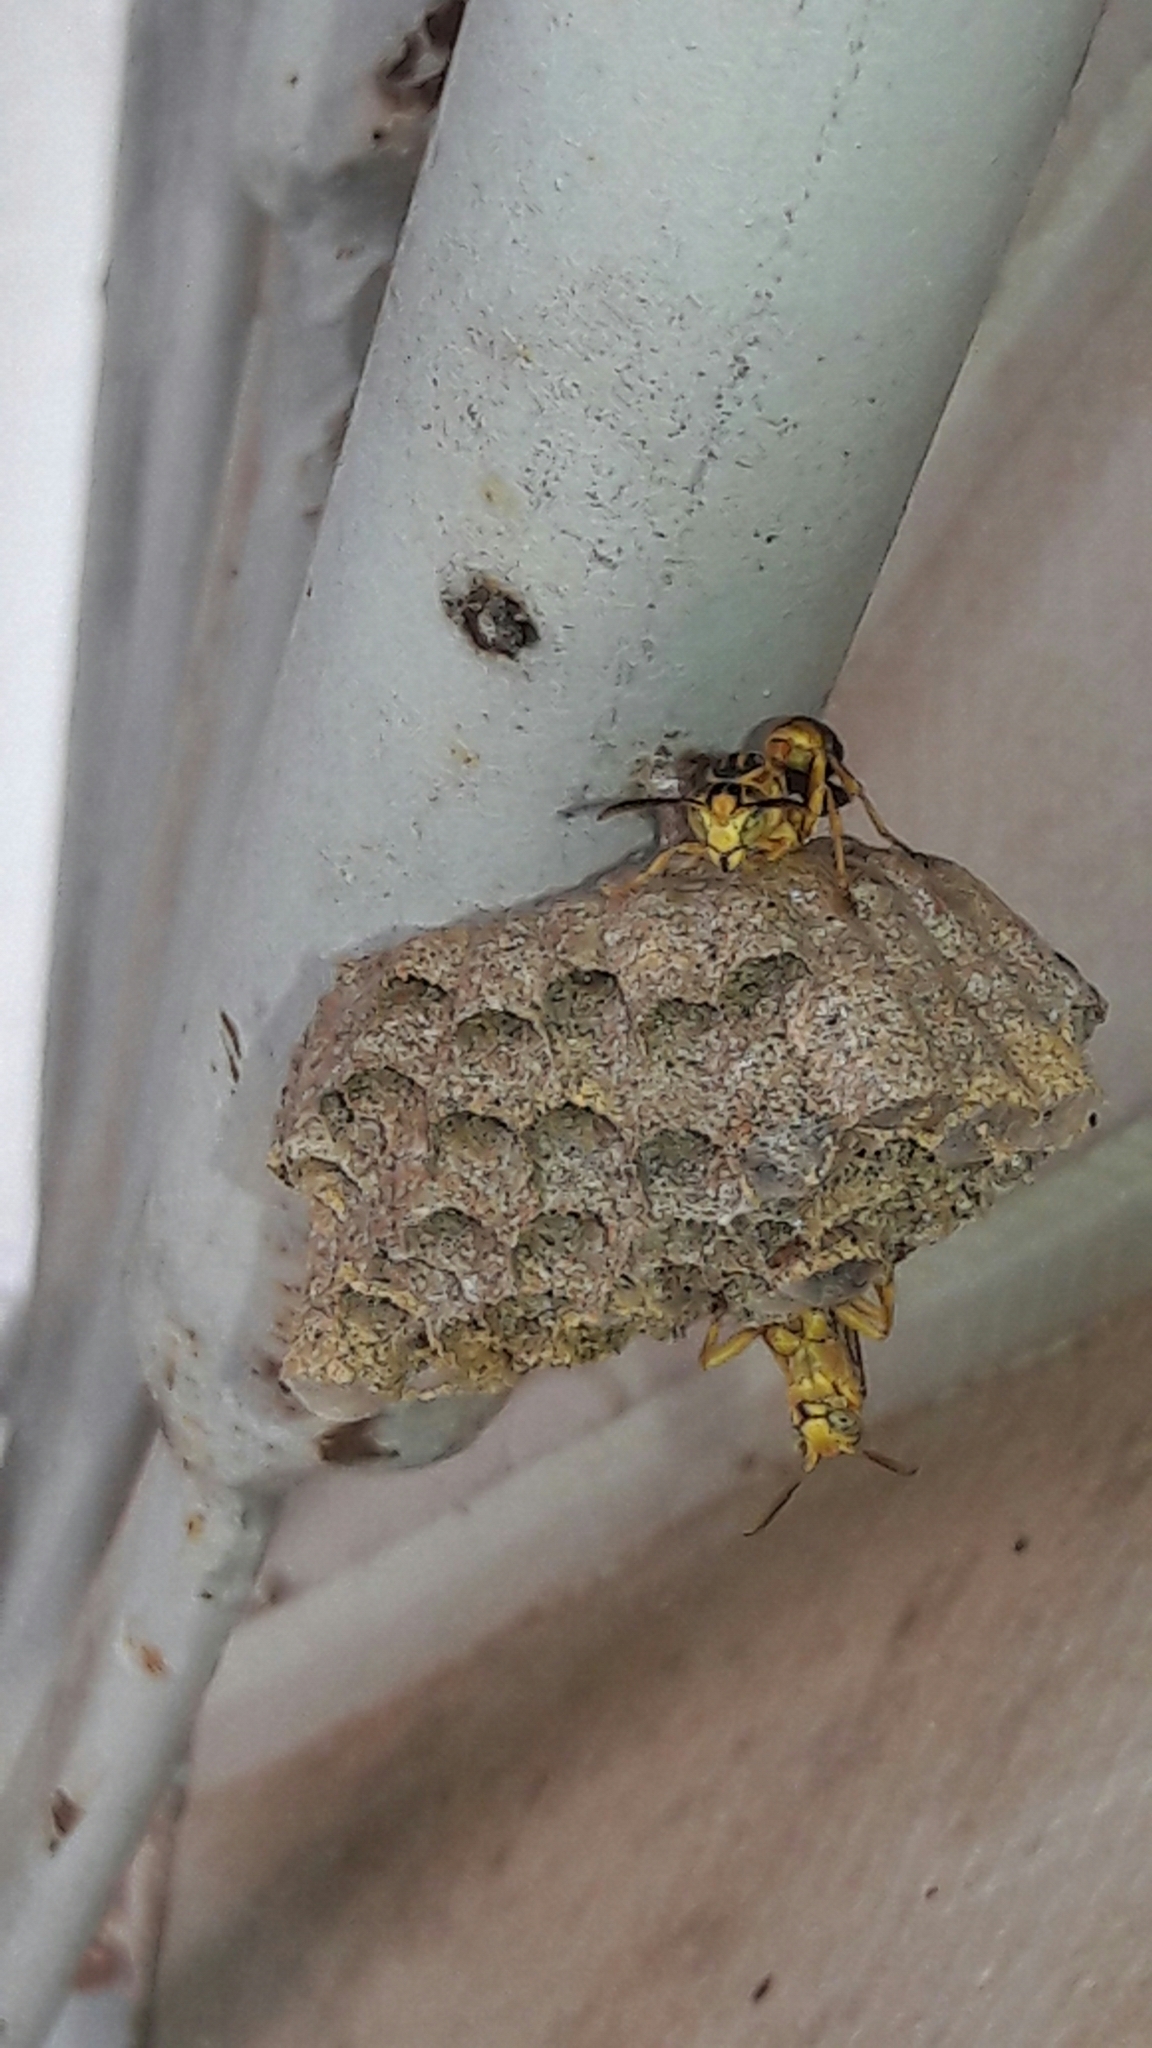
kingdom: Animalia
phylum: Arthropoda
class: Insecta
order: Hymenoptera
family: Vespidae
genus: Mischocyttarus
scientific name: Mischocyttarus cerberus
